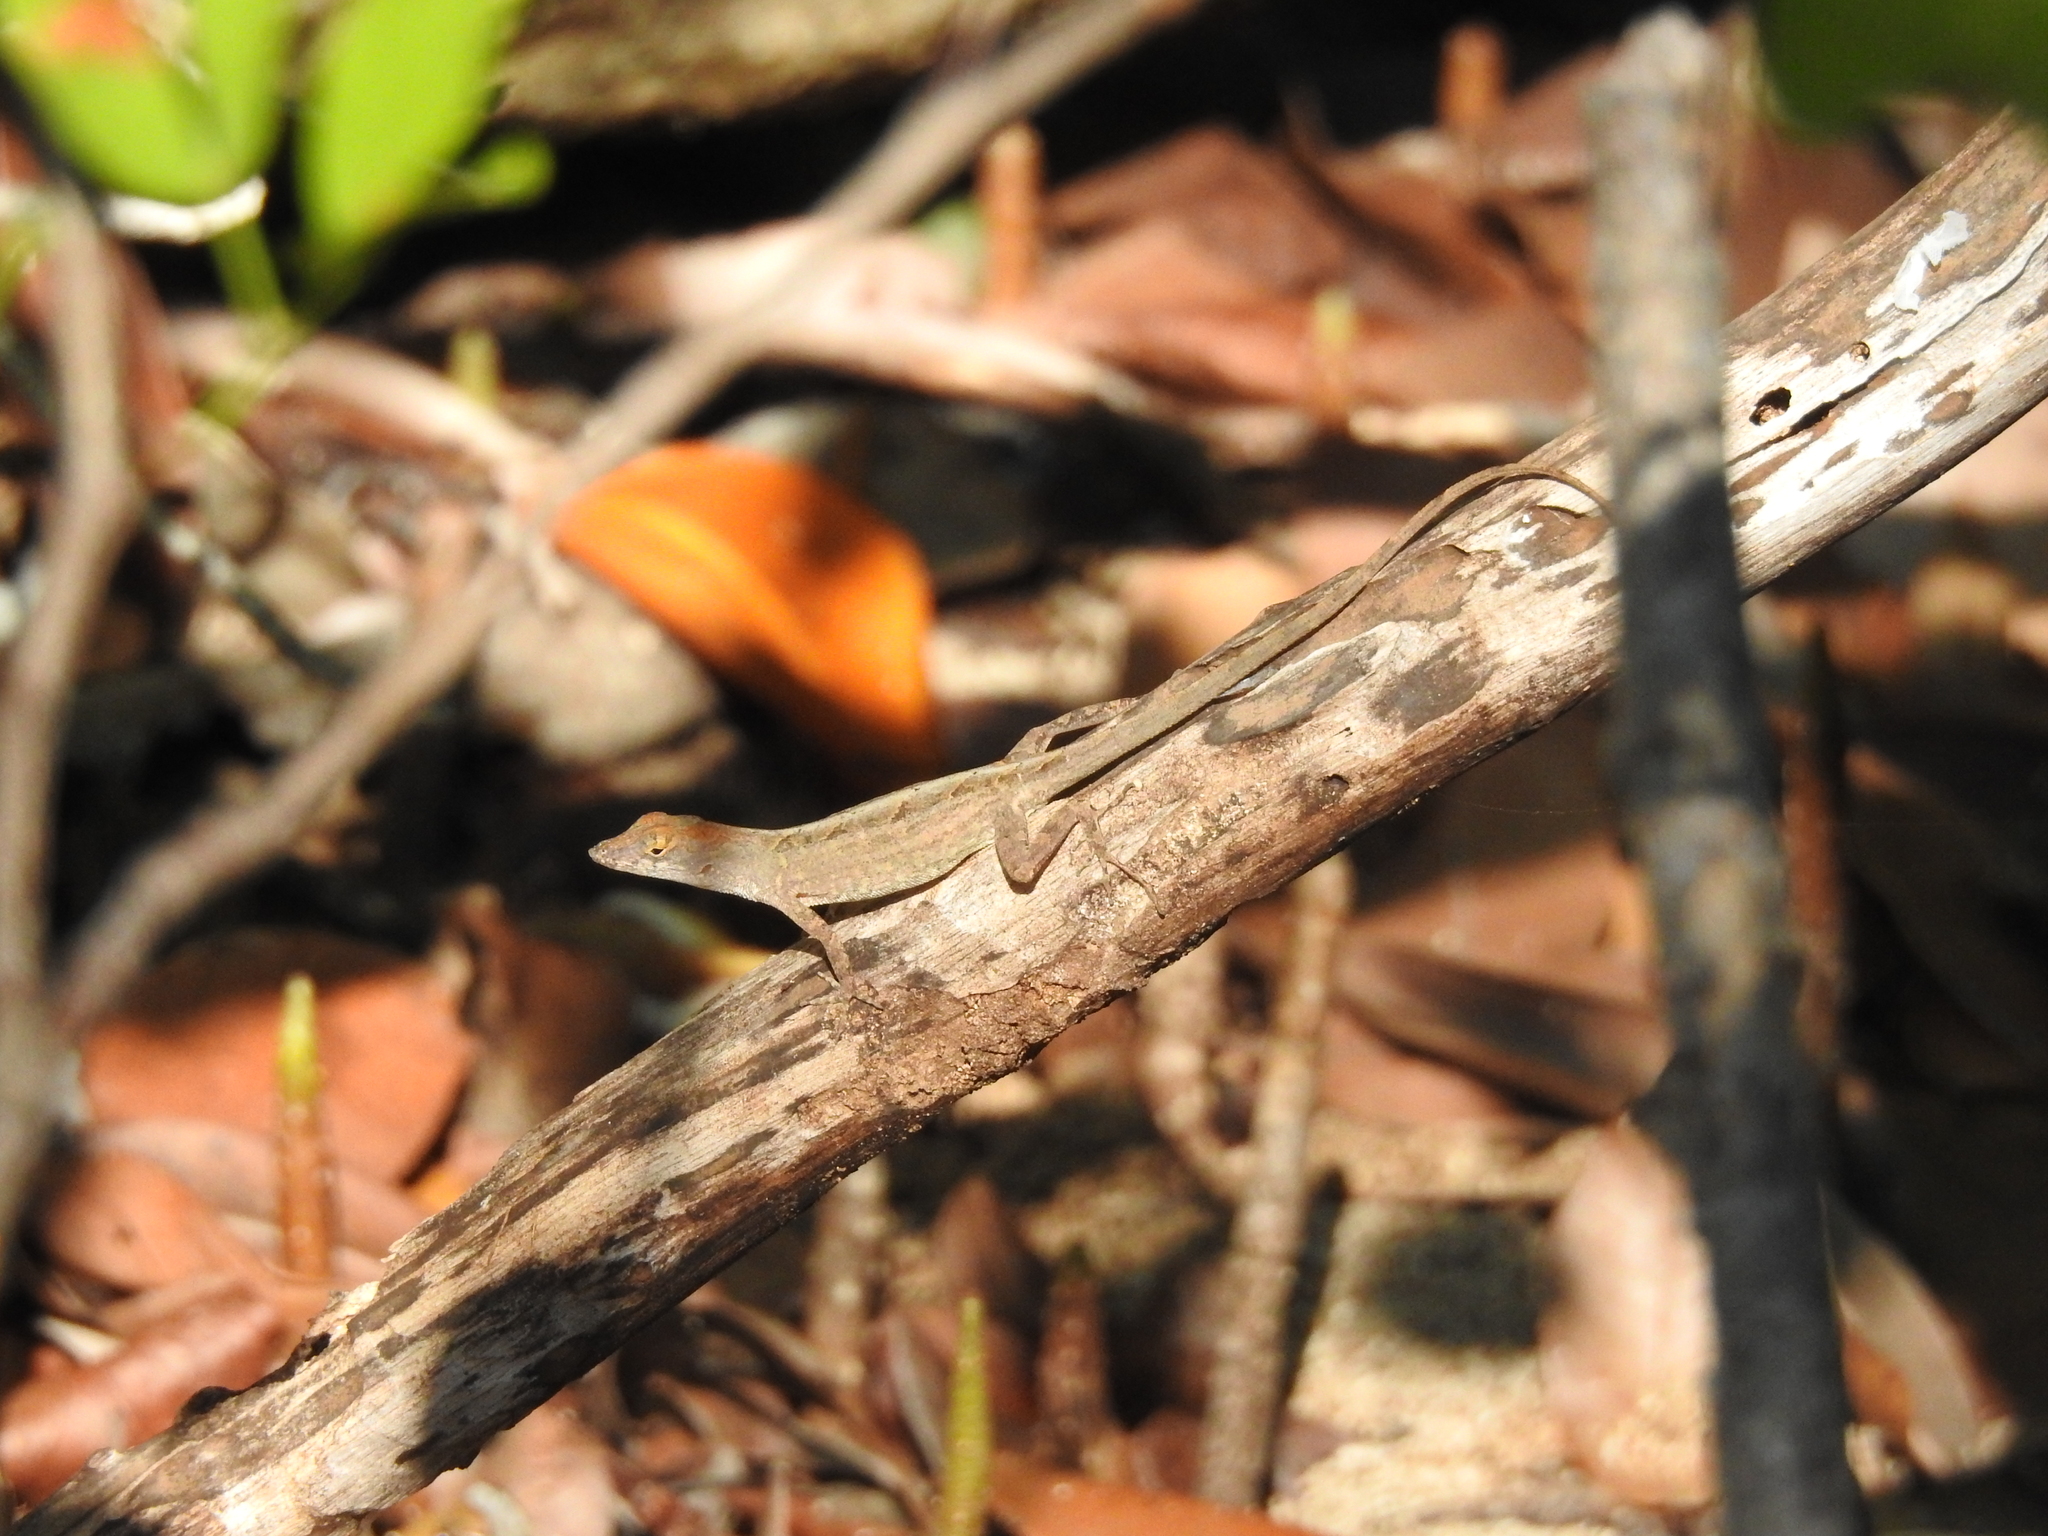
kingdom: Animalia
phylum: Chordata
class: Squamata
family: Dactyloidae
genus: Anolis
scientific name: Anolis sagrei
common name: Brown anole
